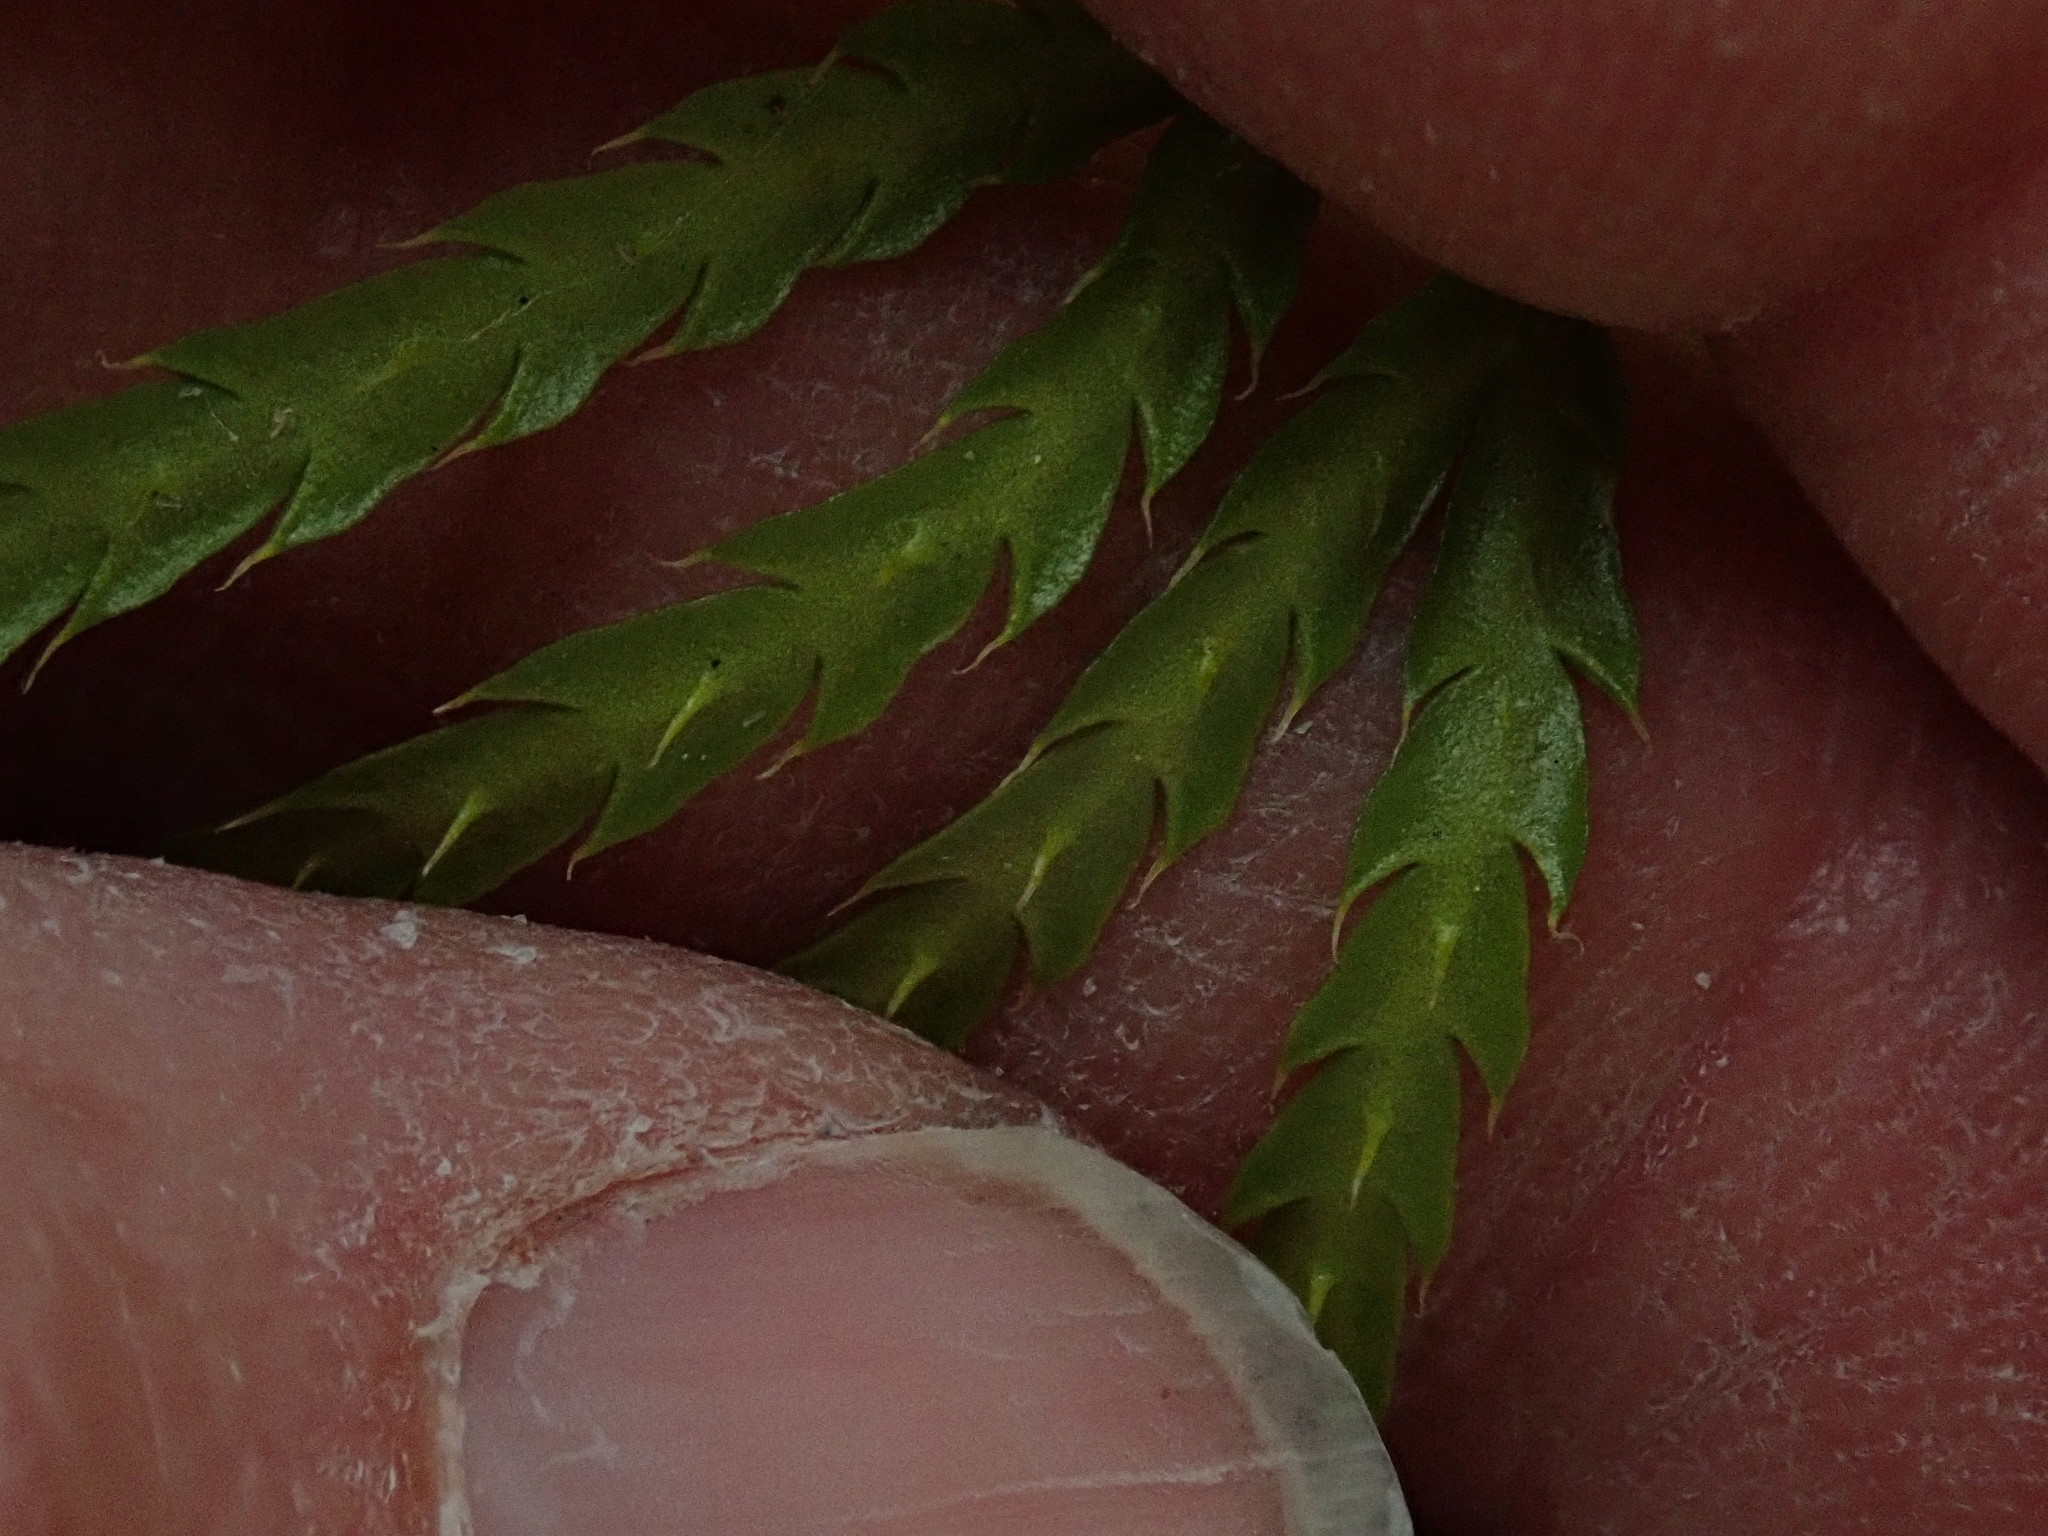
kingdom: Plantae
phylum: Tracheophyta
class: Lycopodiopsida
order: Lycopodiales
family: Lycopodiaceae
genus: Diphasiastrum
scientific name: Diphasiastrum digitatum
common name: Southern running-pine
